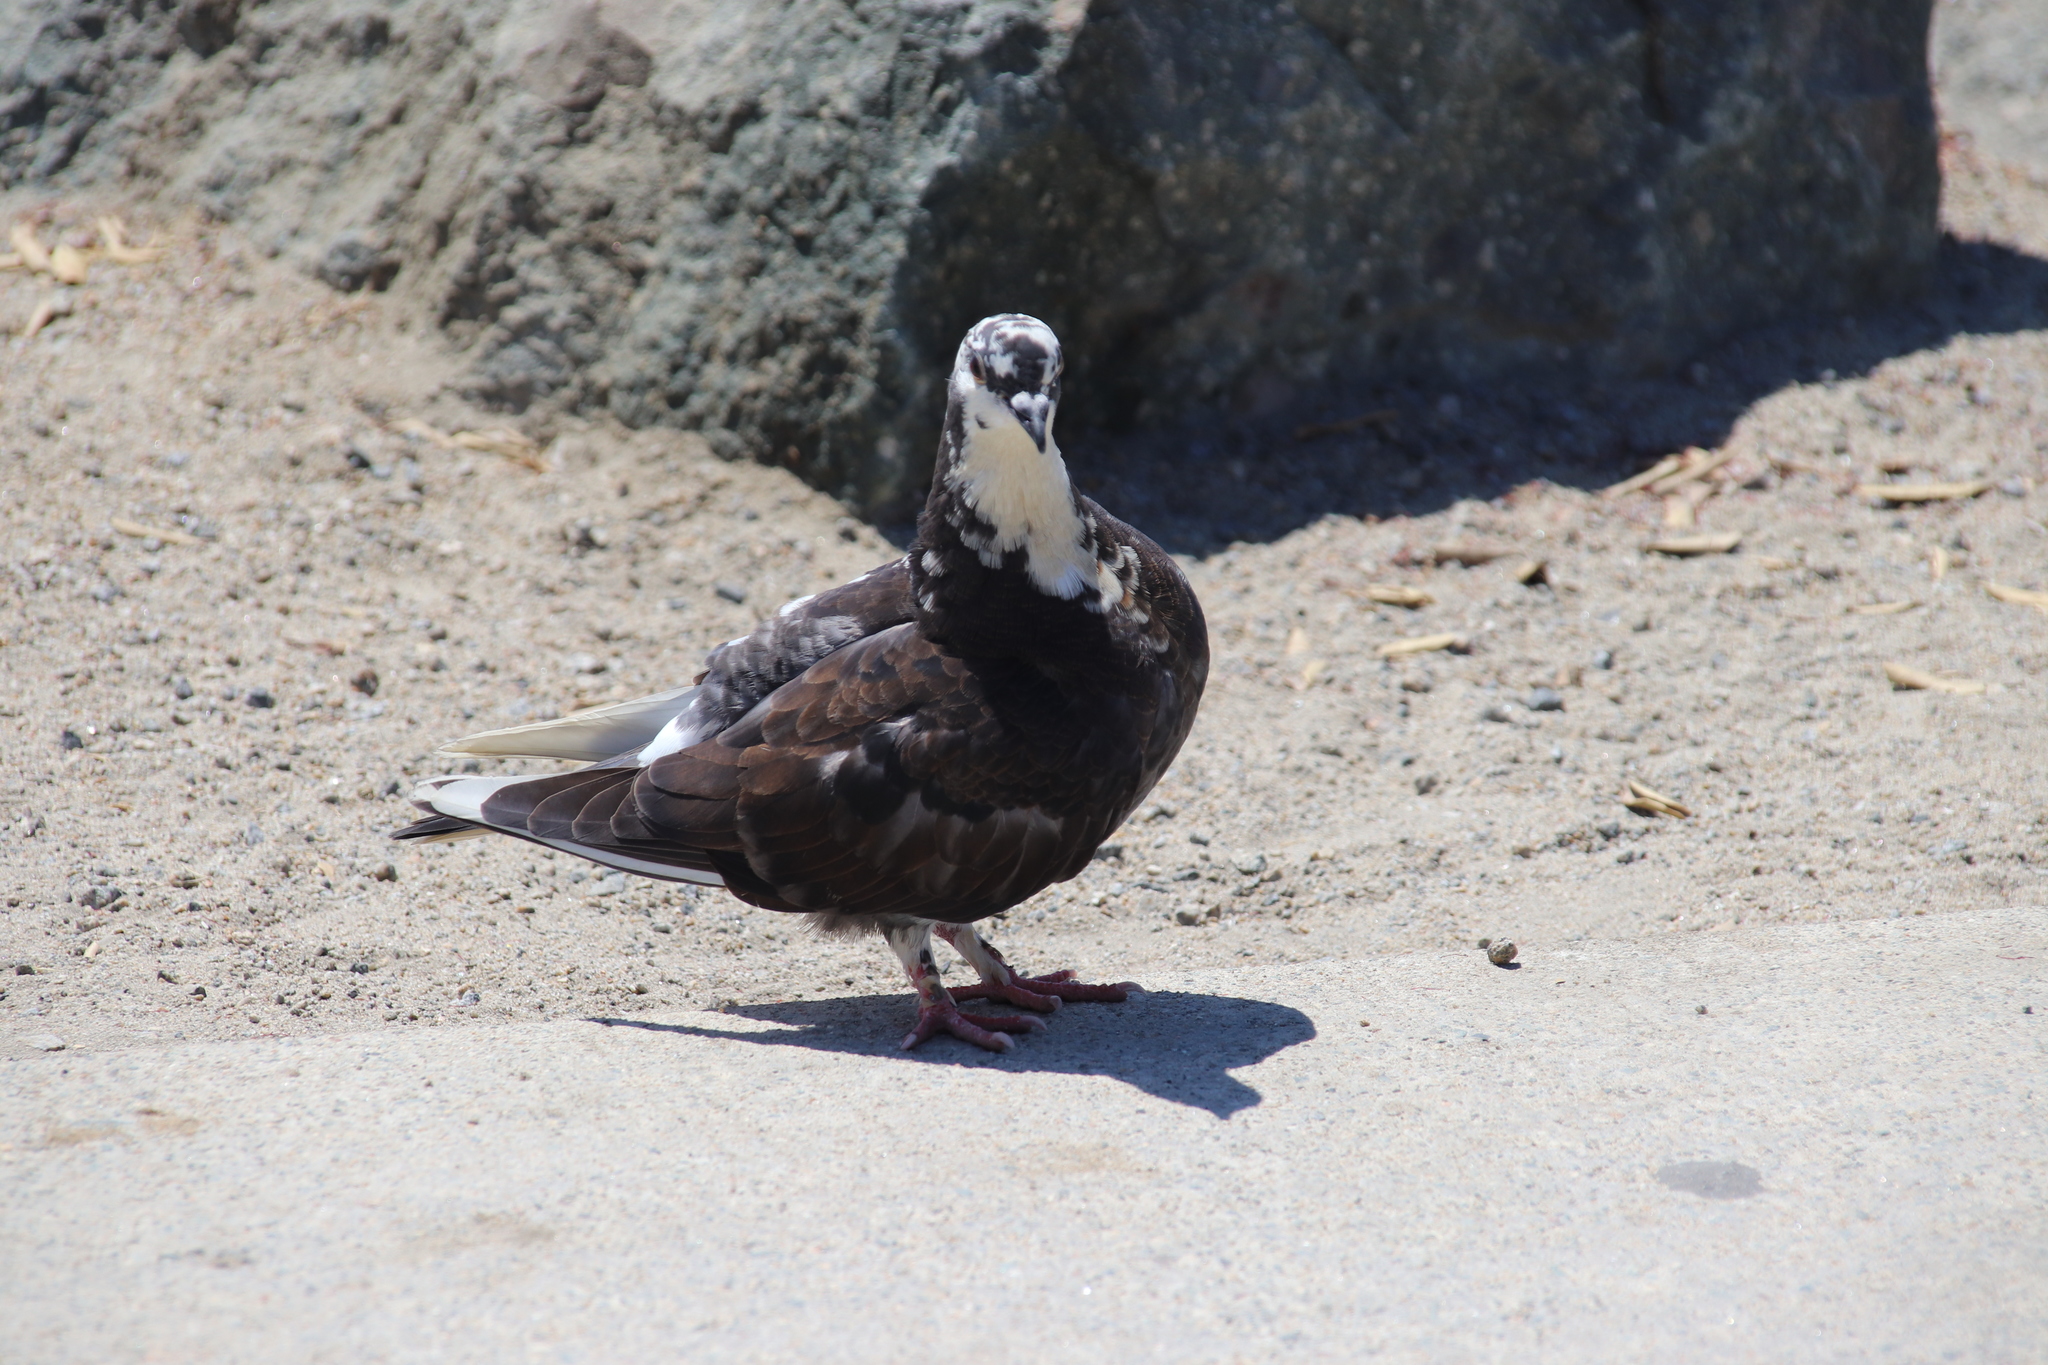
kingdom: Animalia
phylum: Chordata
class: Aves
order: Columbiformes
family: Columbidae
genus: Columba
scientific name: Columba livia
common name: Rock pigeon
